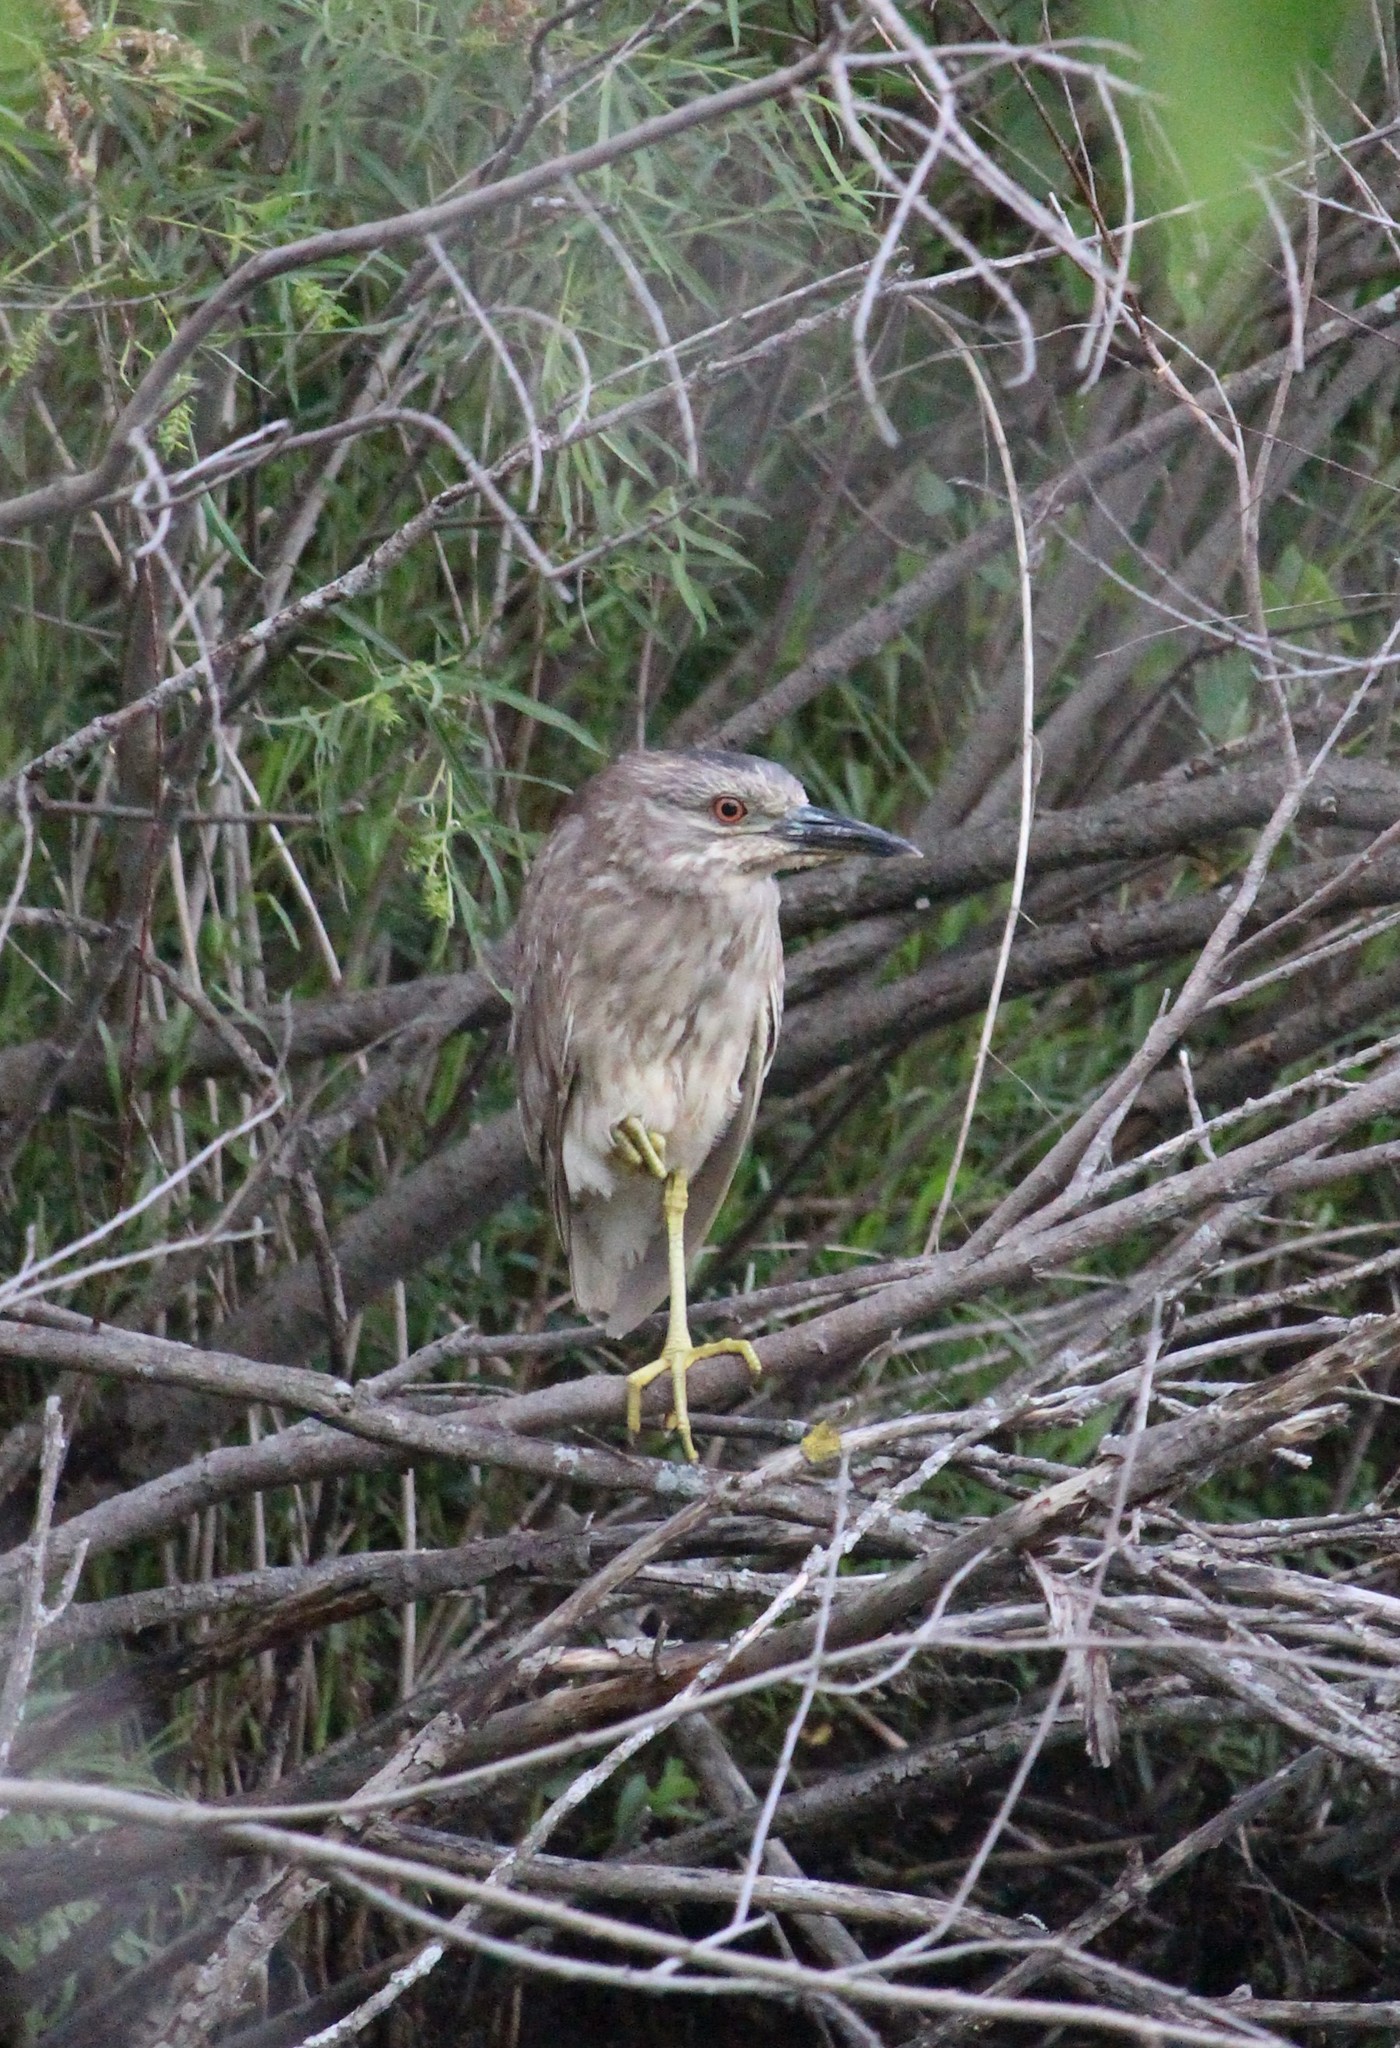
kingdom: Animalia
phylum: Chordata
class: Aves
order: Pelecaniformes
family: Ardeidae
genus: Nycticorax
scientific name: Nycticorax nycticorax
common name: Black-crowned night heron
